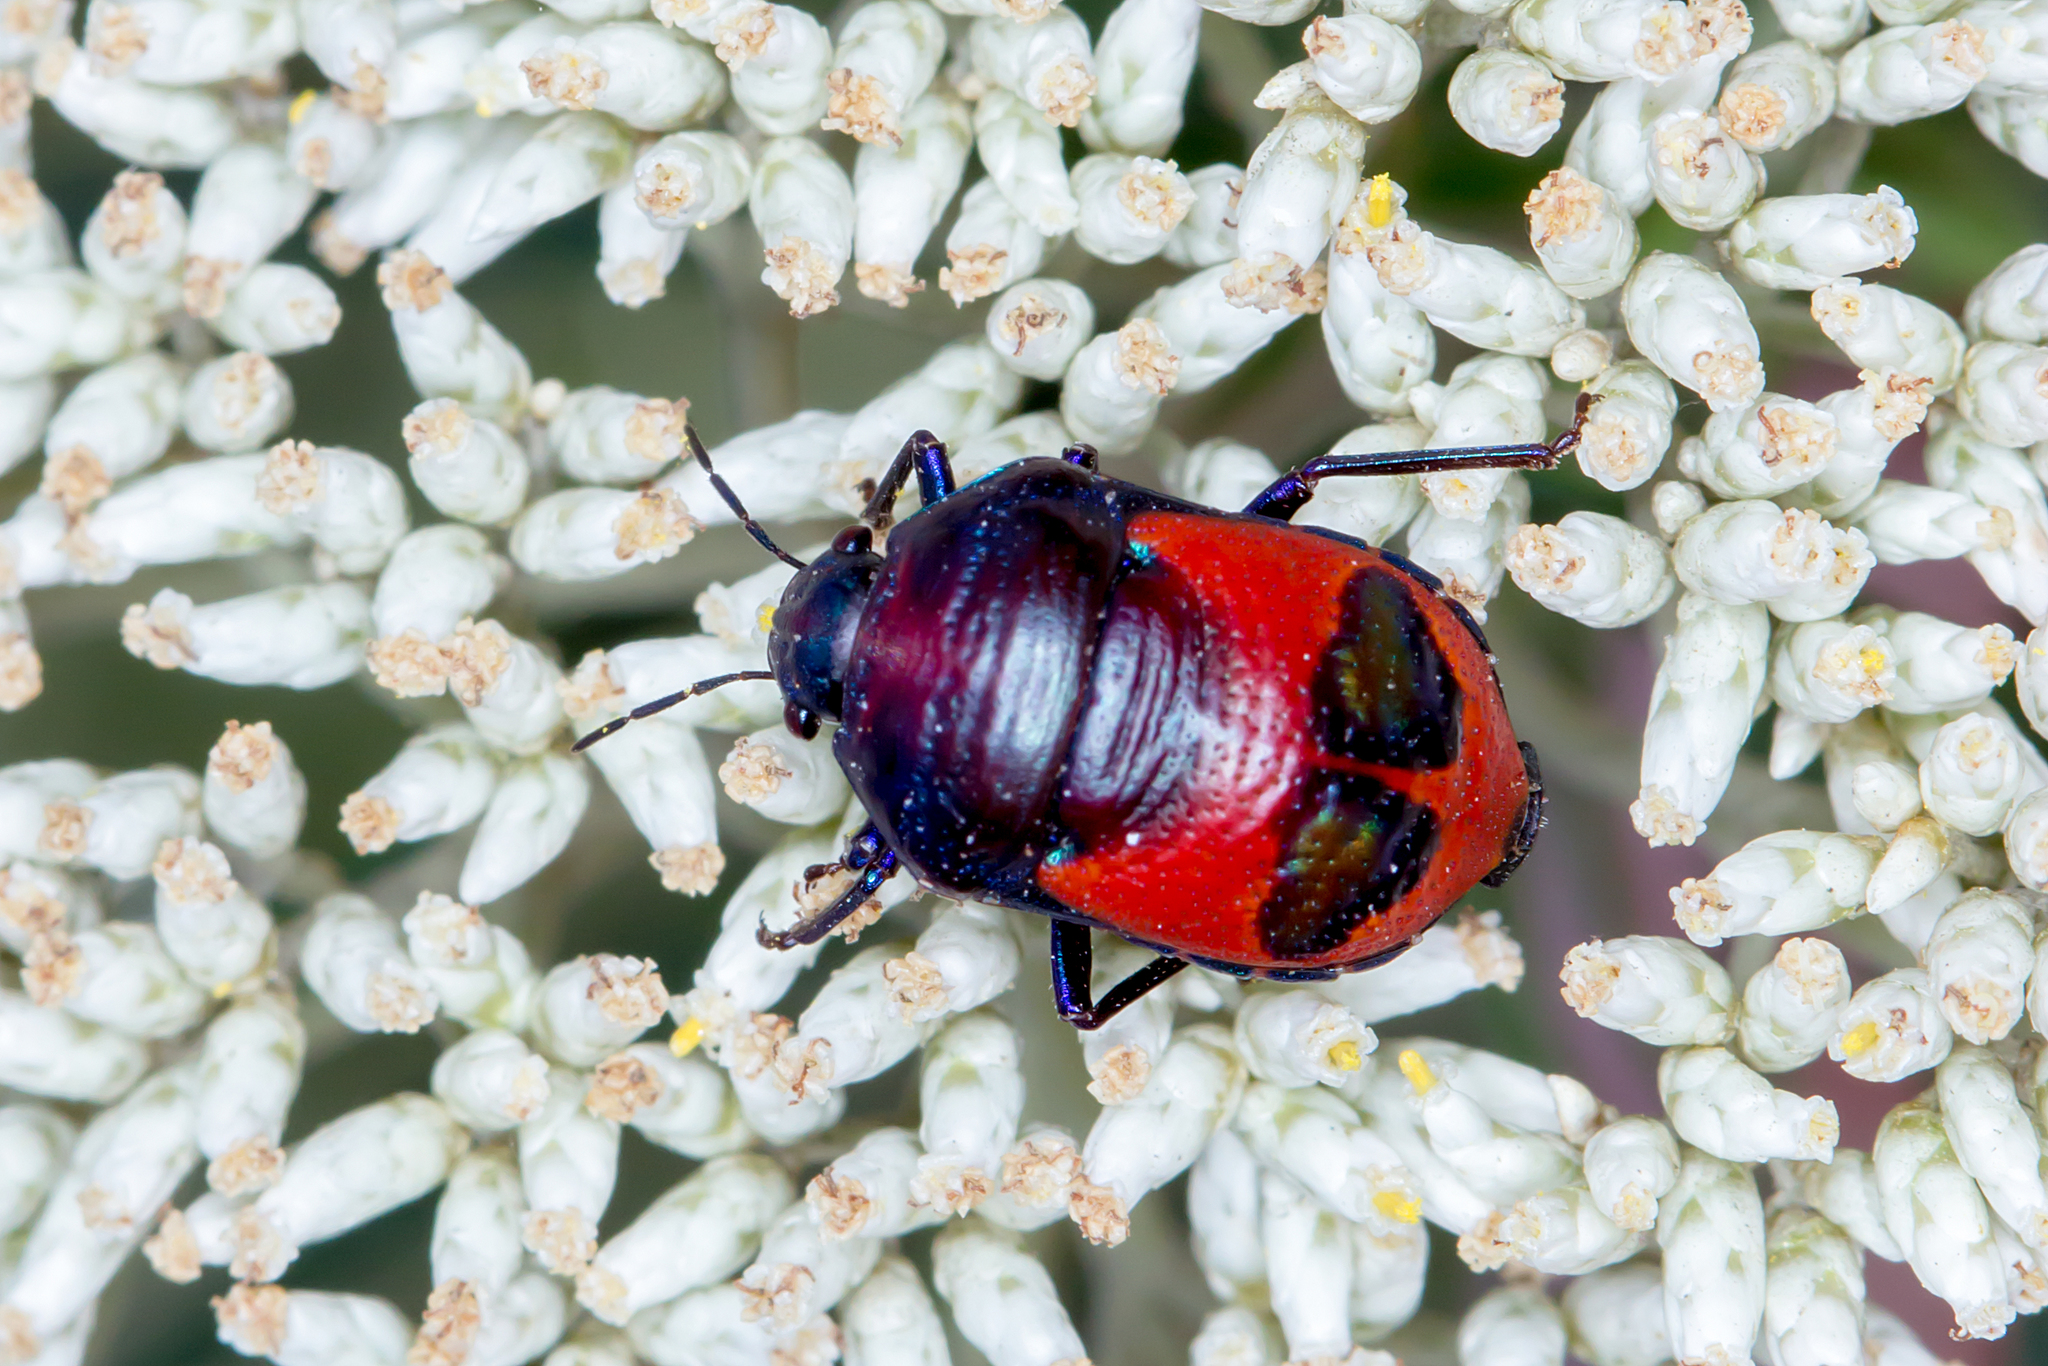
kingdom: Animalia
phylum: Arthropoda
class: Insecta
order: Hemiptera
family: Scutelleridae
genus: Choerocoris
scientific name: Choerocoris paganus
